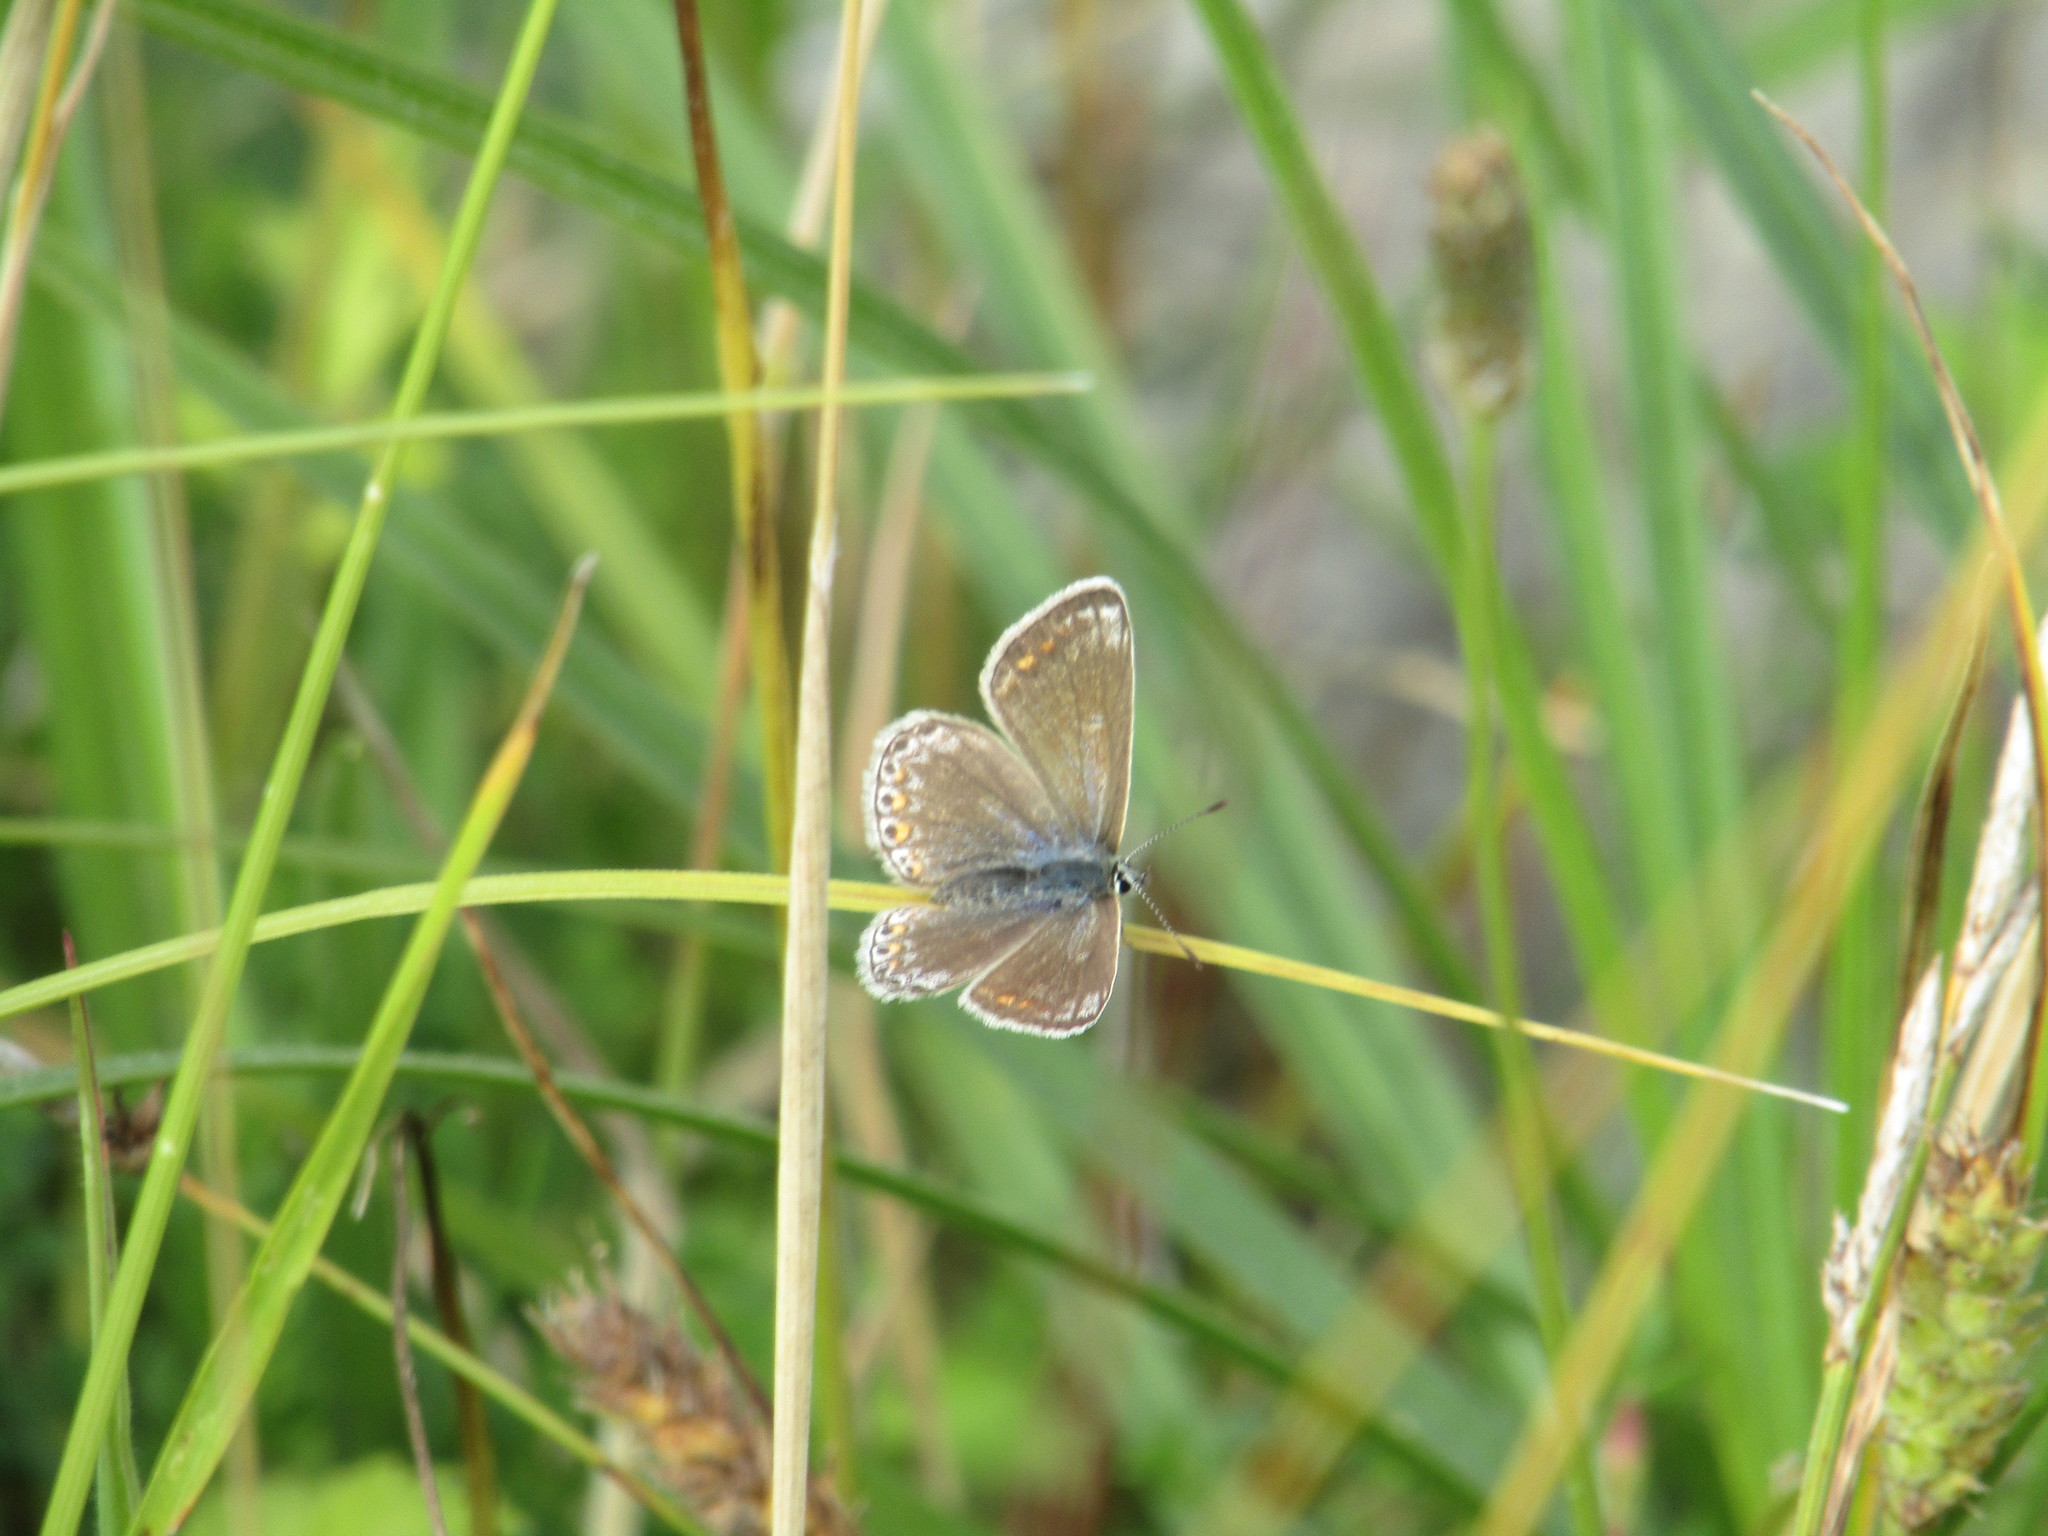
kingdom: Animalia
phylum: Arthropoda
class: Insecta
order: Lepidoptera
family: Lycaenidae
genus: Polyommatus
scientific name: Polyommatus icarus
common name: Common blue
